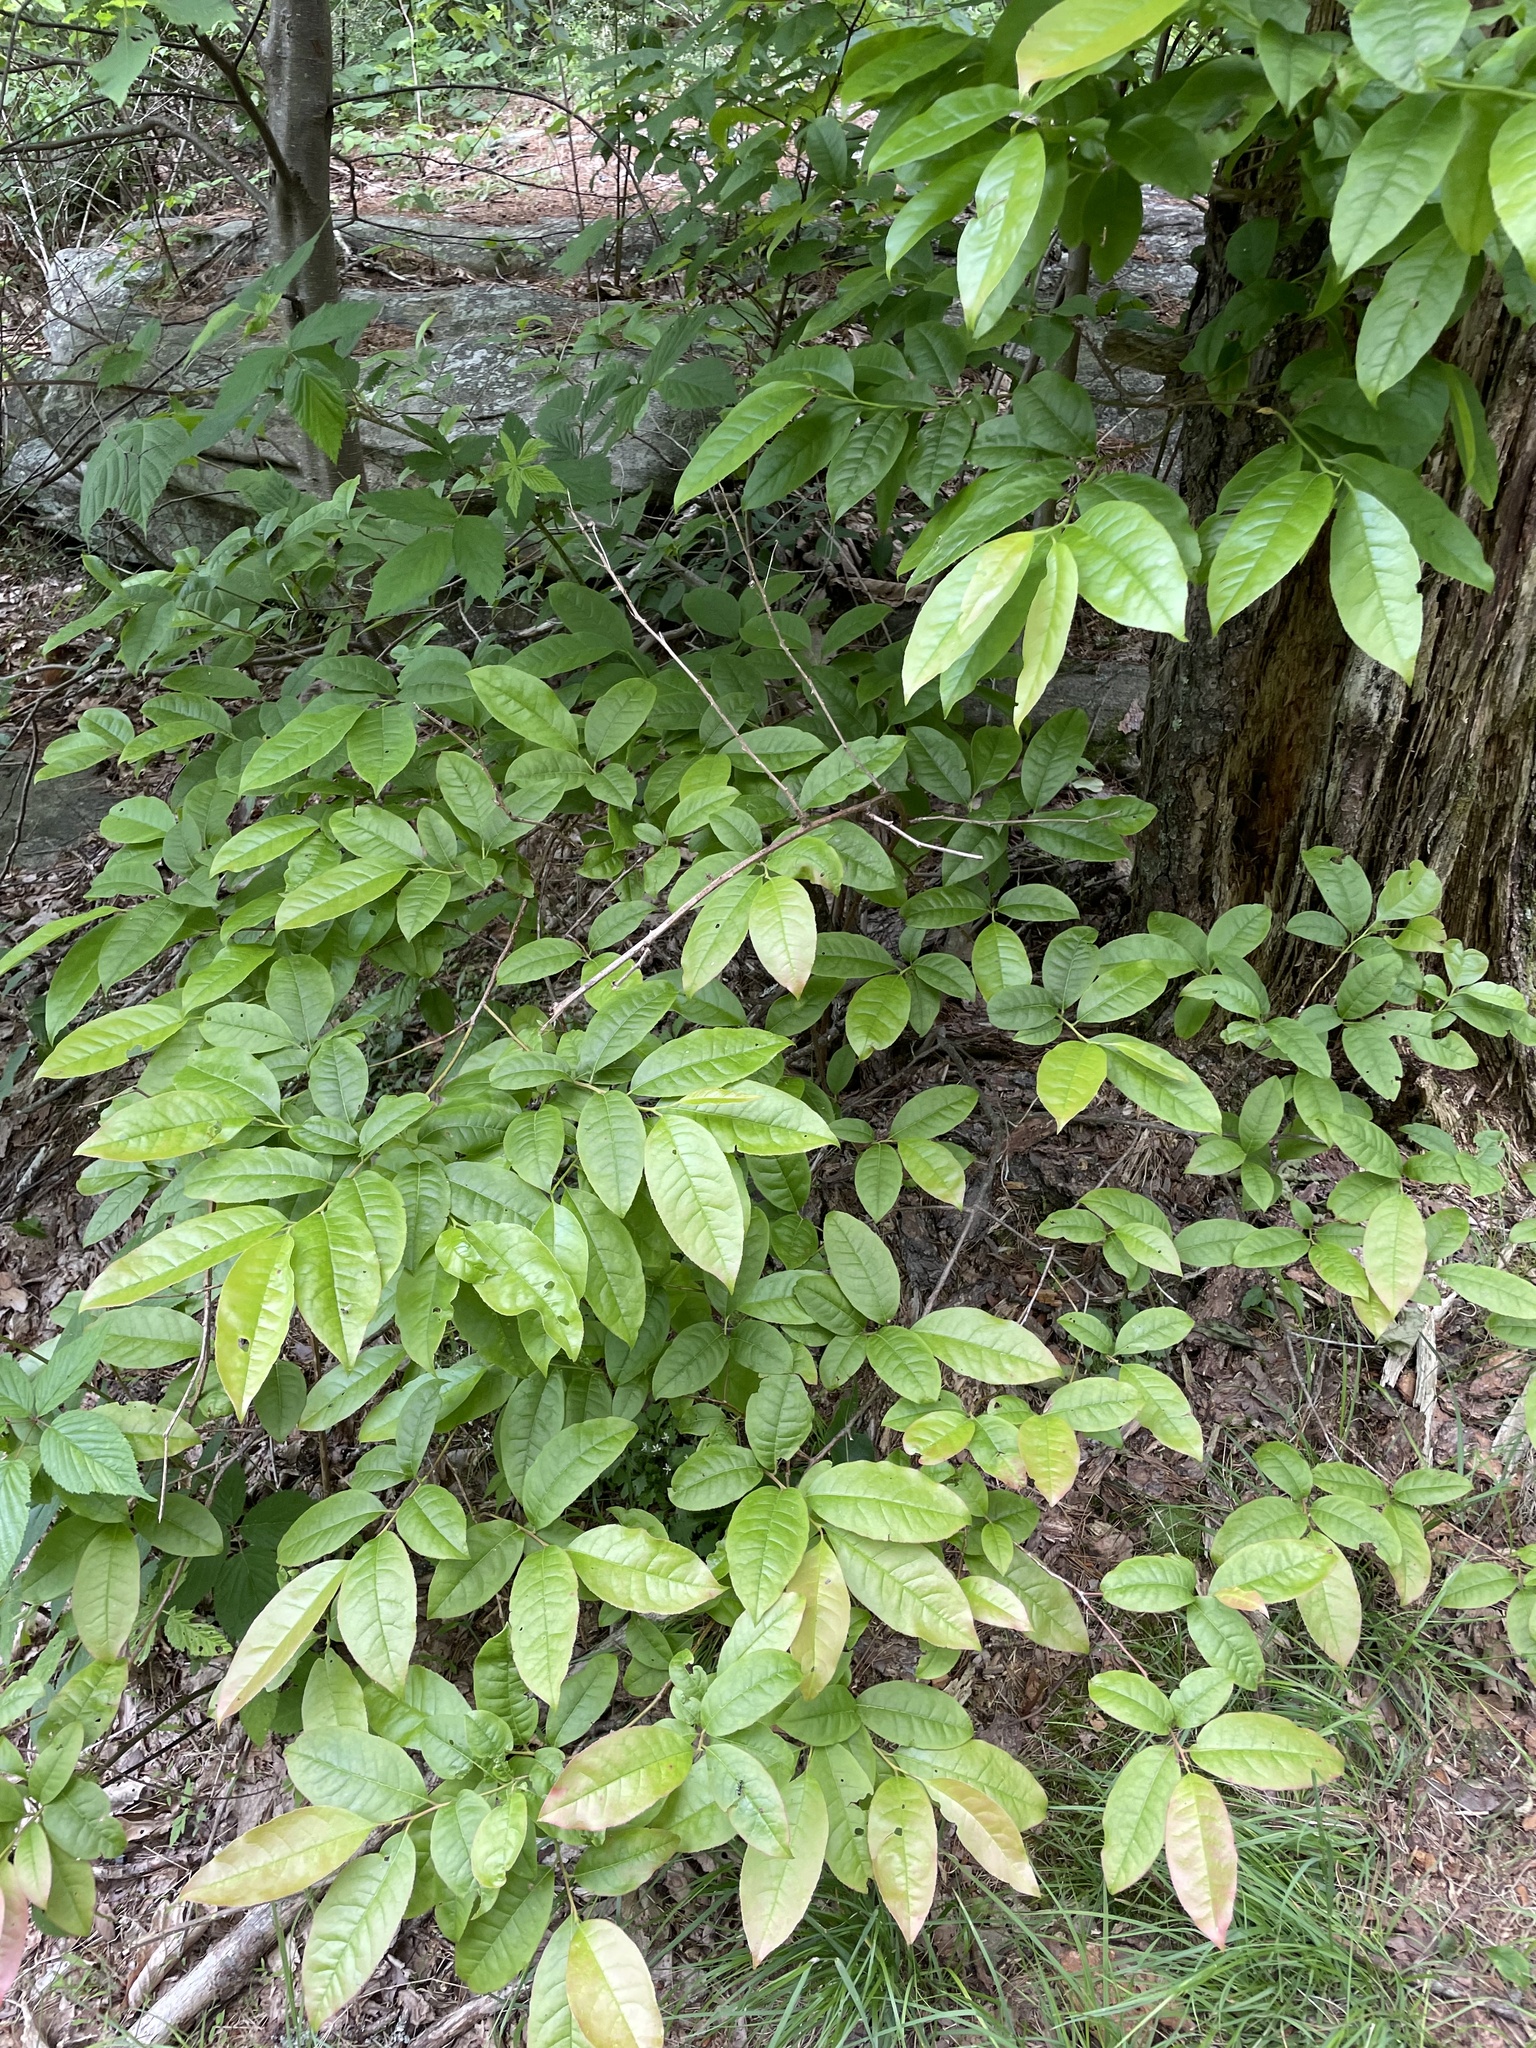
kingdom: Plantae
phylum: Tracheophyta
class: Magnoliopsida
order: Ericales
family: Ericaceae
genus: Oxydendrum
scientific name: Oxydendrum arboreum
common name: Sourwood
